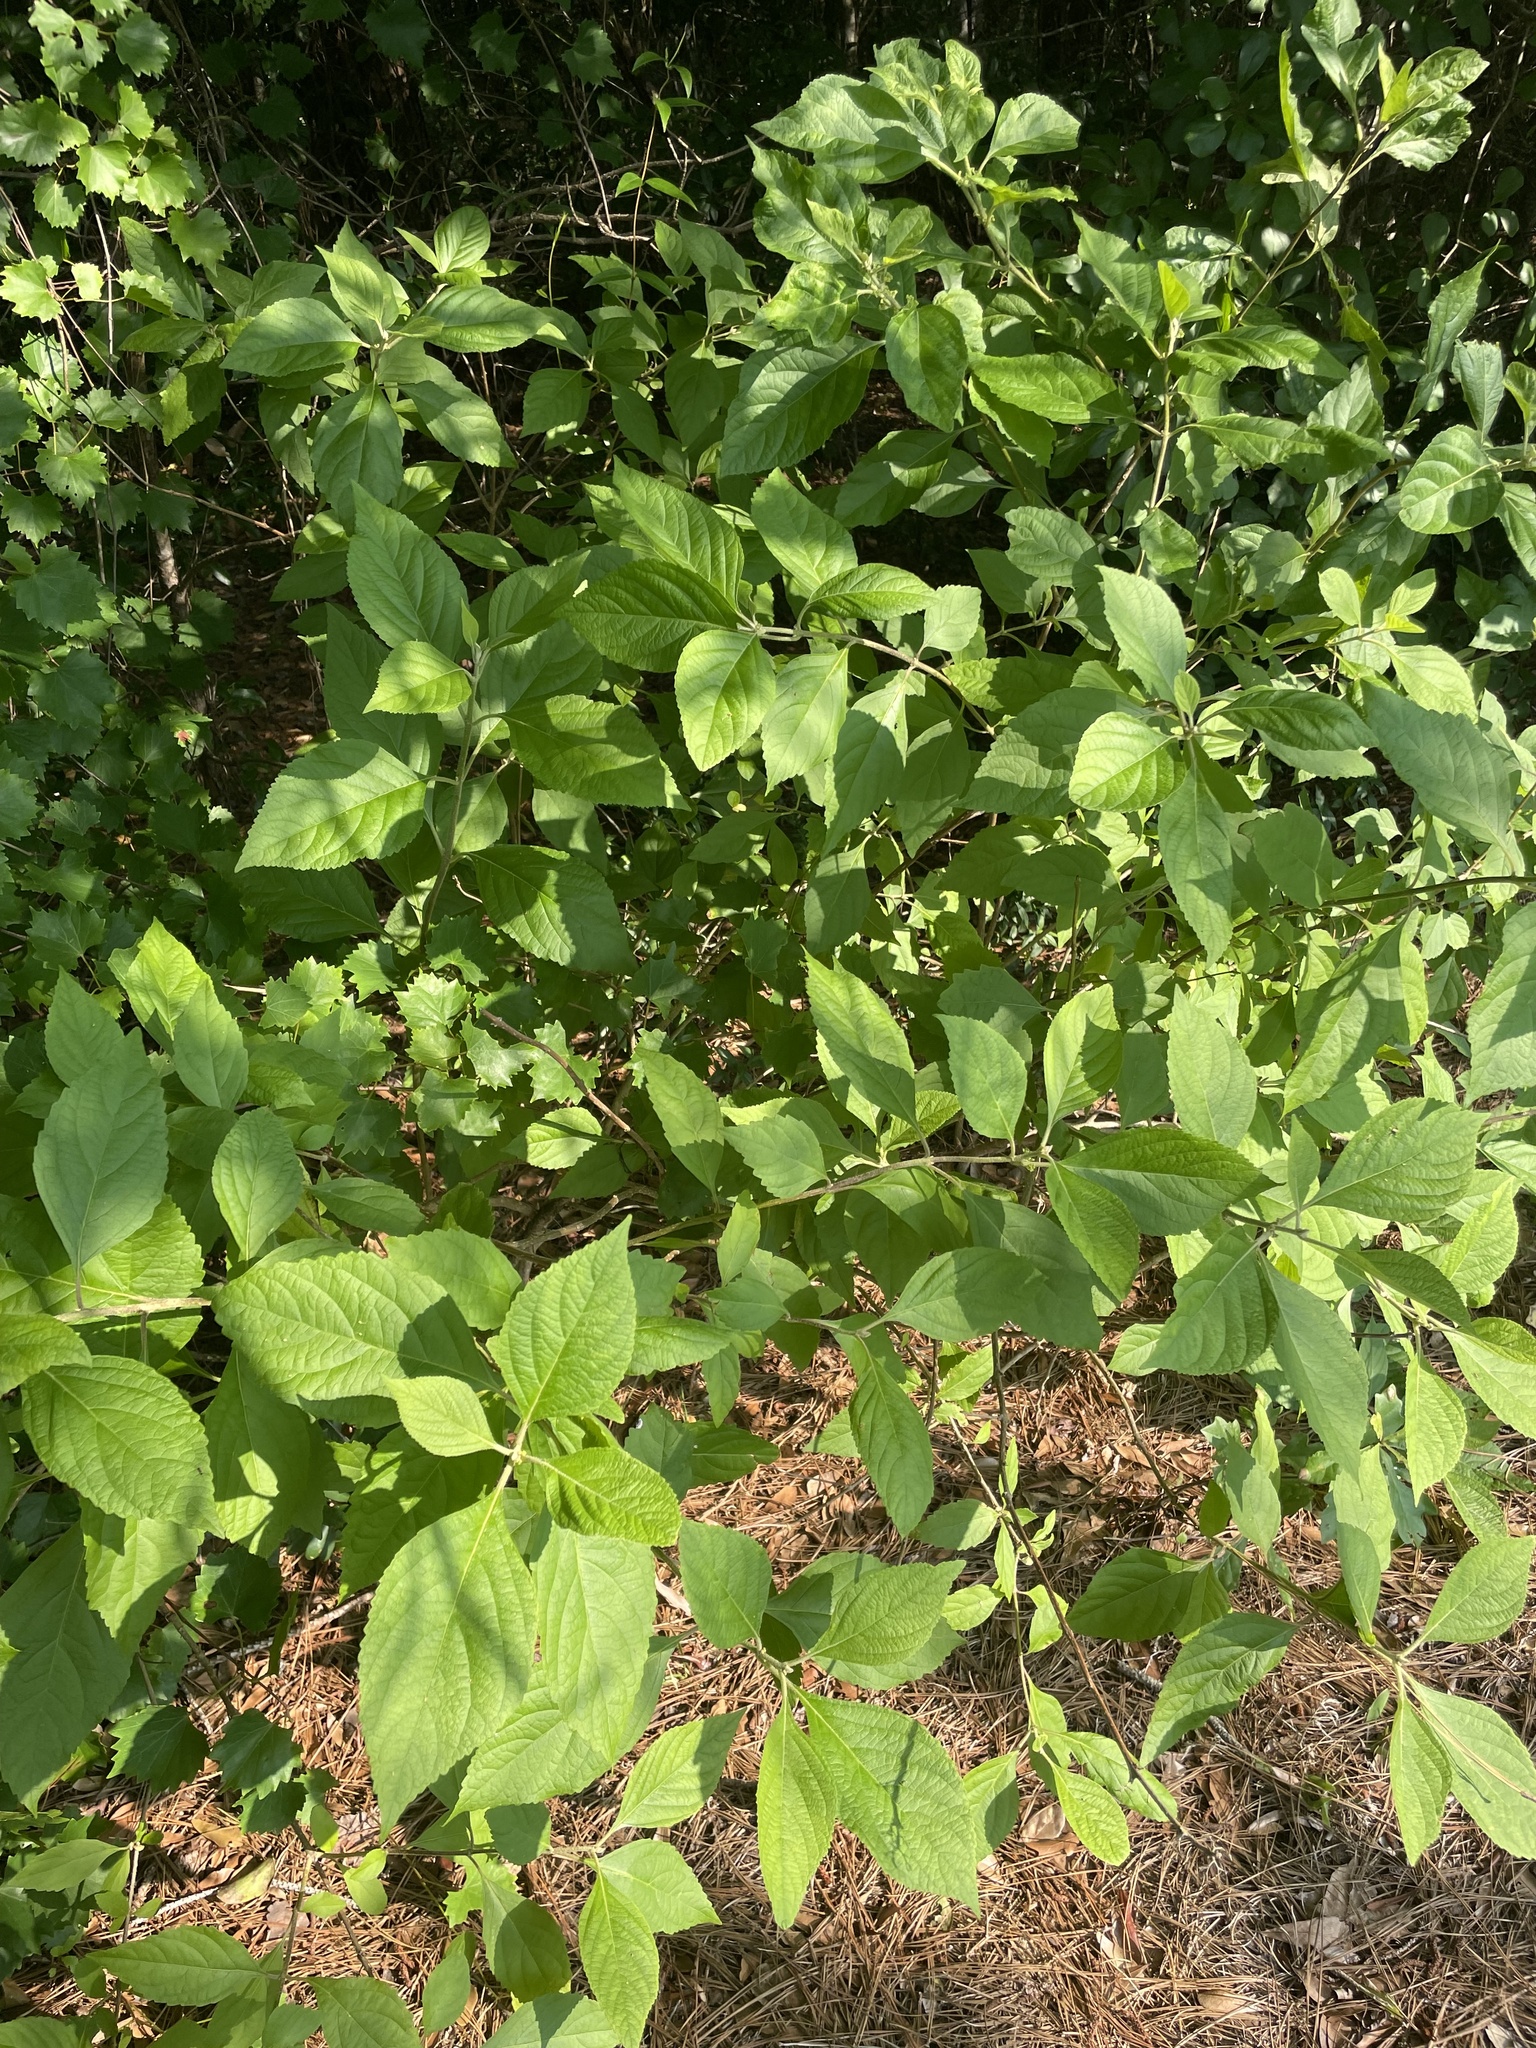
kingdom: Plantae
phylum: Tracheophyta
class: Magnoliopsida
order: Lamiales
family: Lamiaceae
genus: Callicarpa
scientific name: Callicarpa americana
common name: American beautyberry
